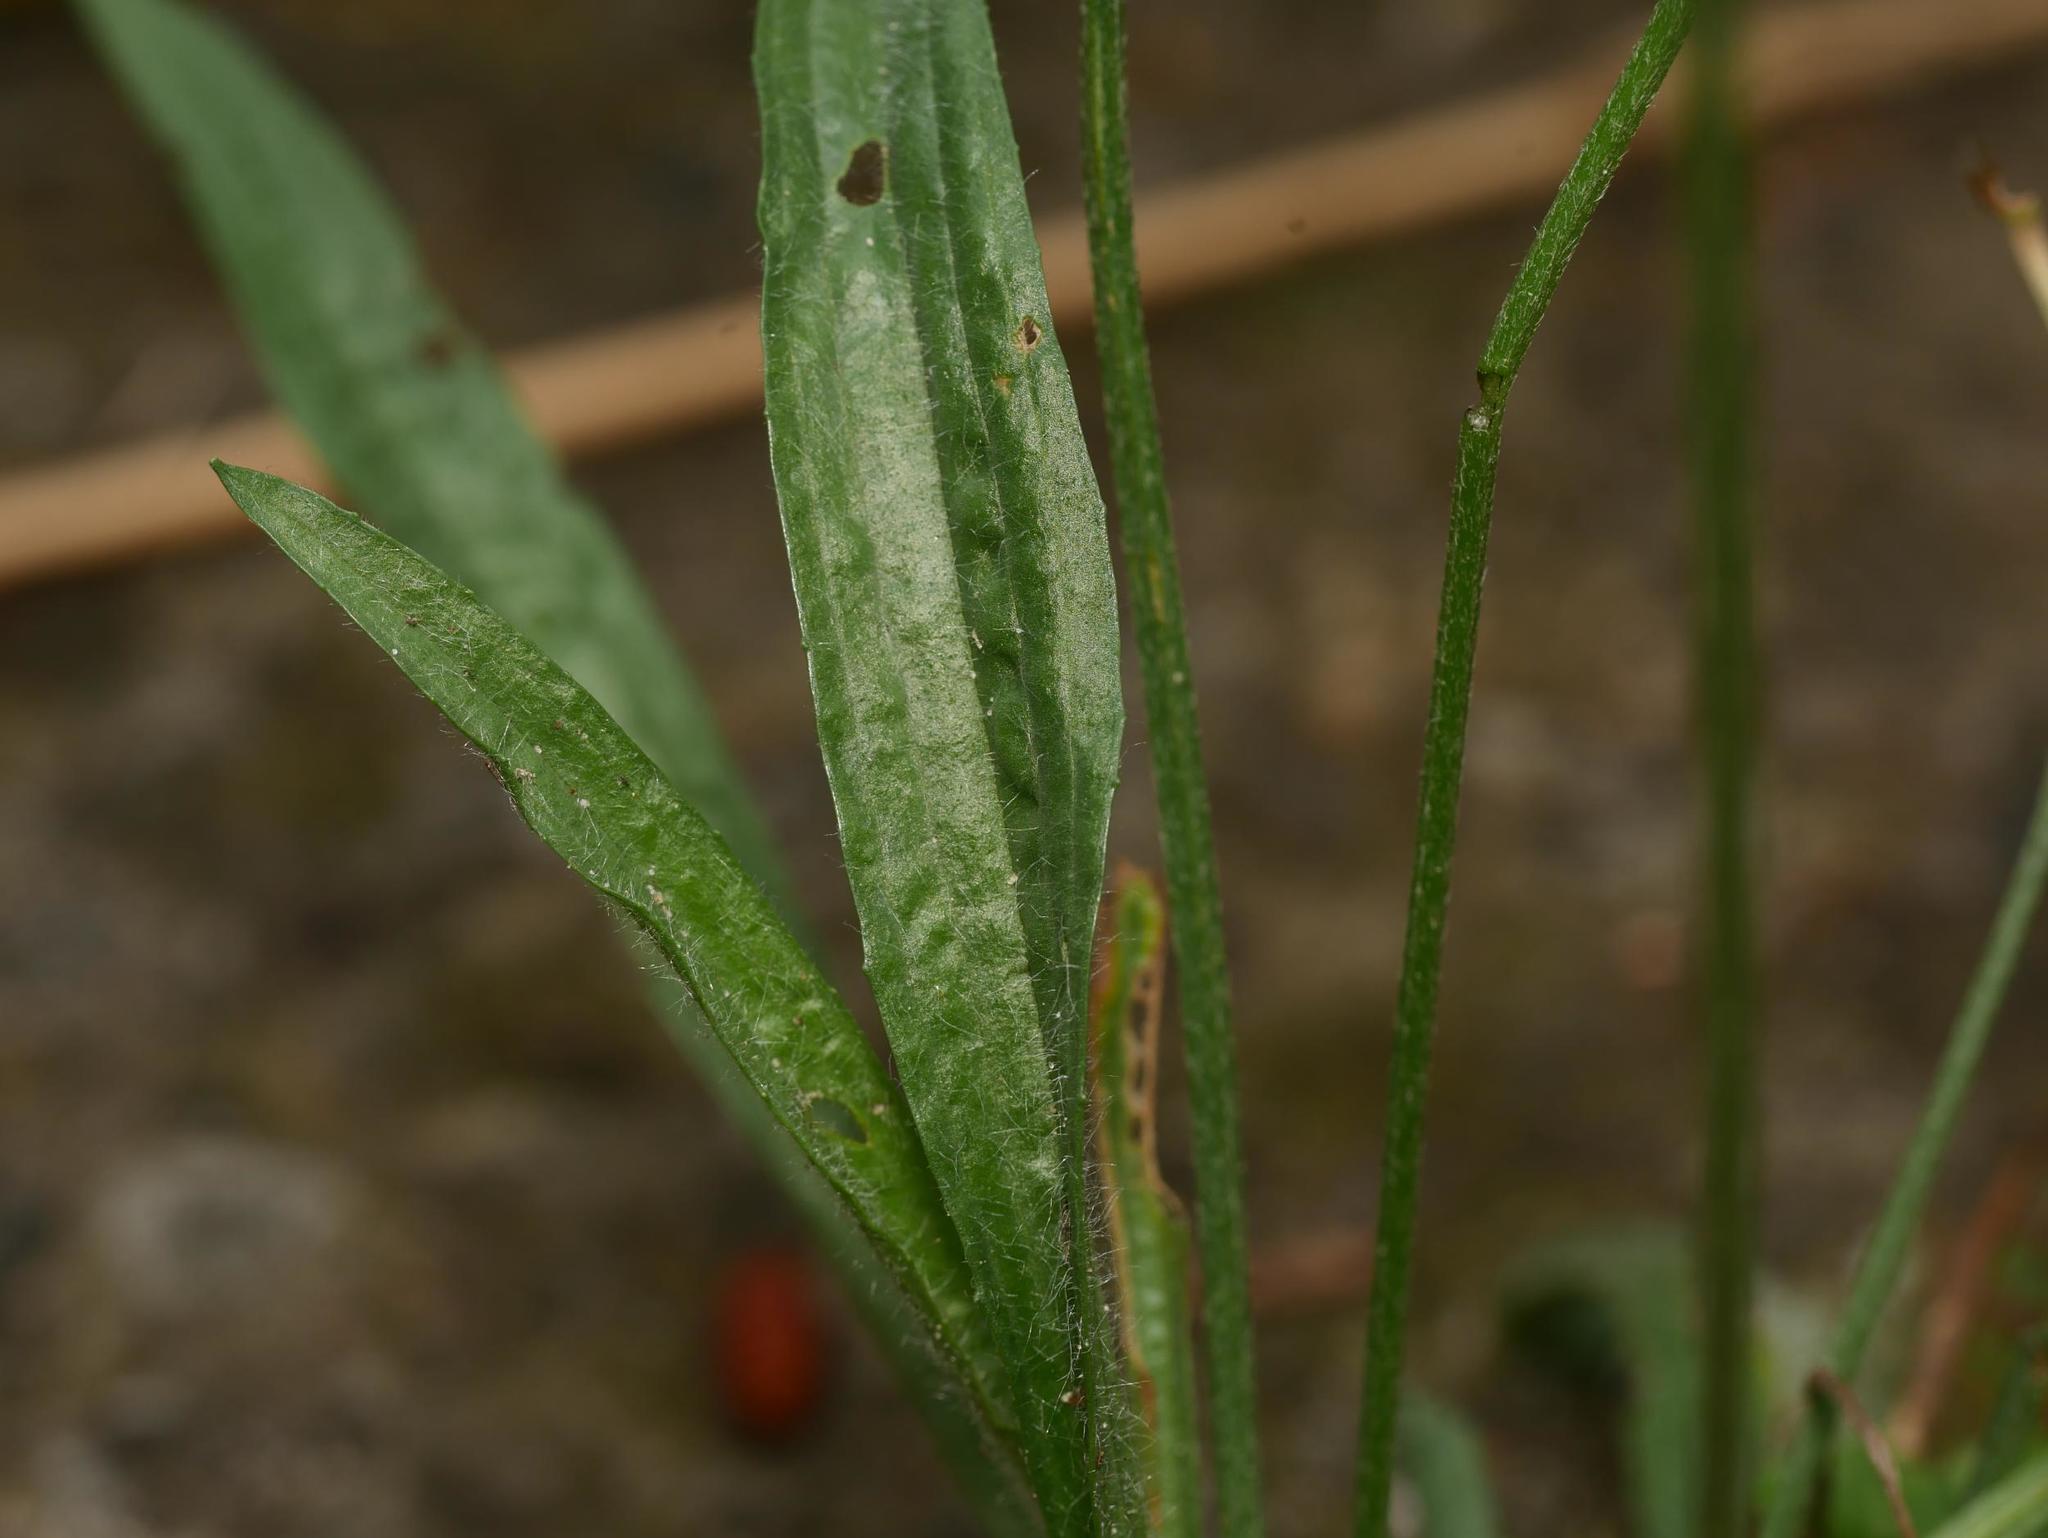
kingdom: Plantae
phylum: Tracheophyta
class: Magnoliopsida
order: Lamiales
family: Plantaginaceae
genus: Plantago
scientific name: Plantago lanceolata
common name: Ribwort plantain
